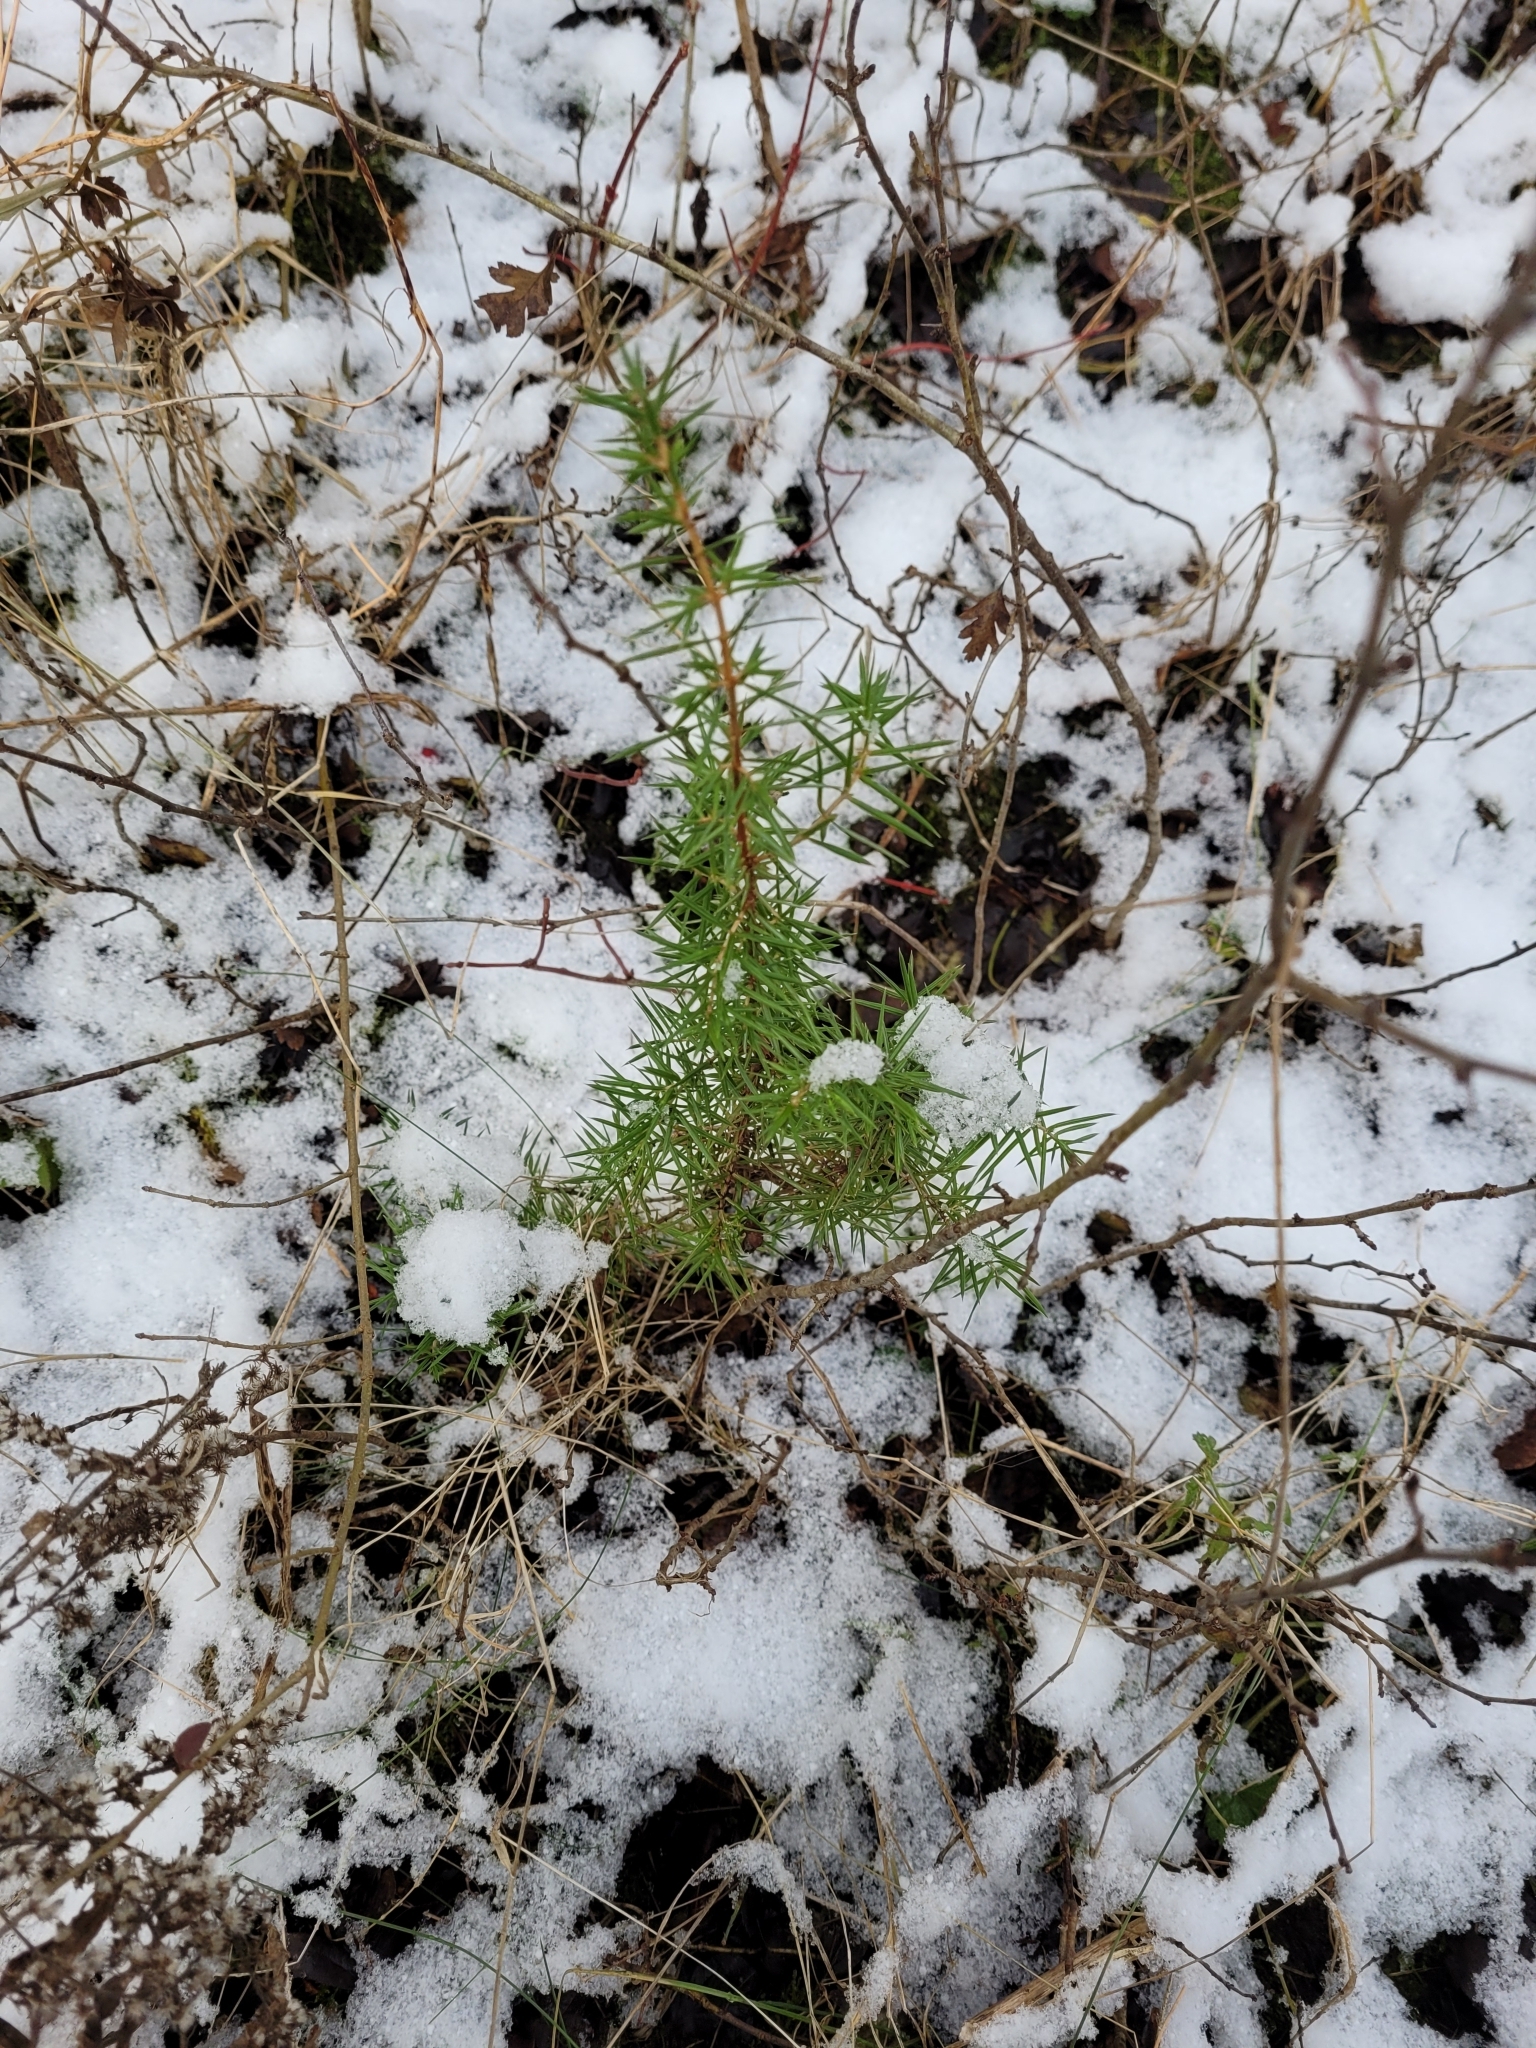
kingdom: Plantae
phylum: Tracheophyta
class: Pinopsida
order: Pinales
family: Cupressaceae
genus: Juniperus
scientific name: Juniperus communis
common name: Common juniper
